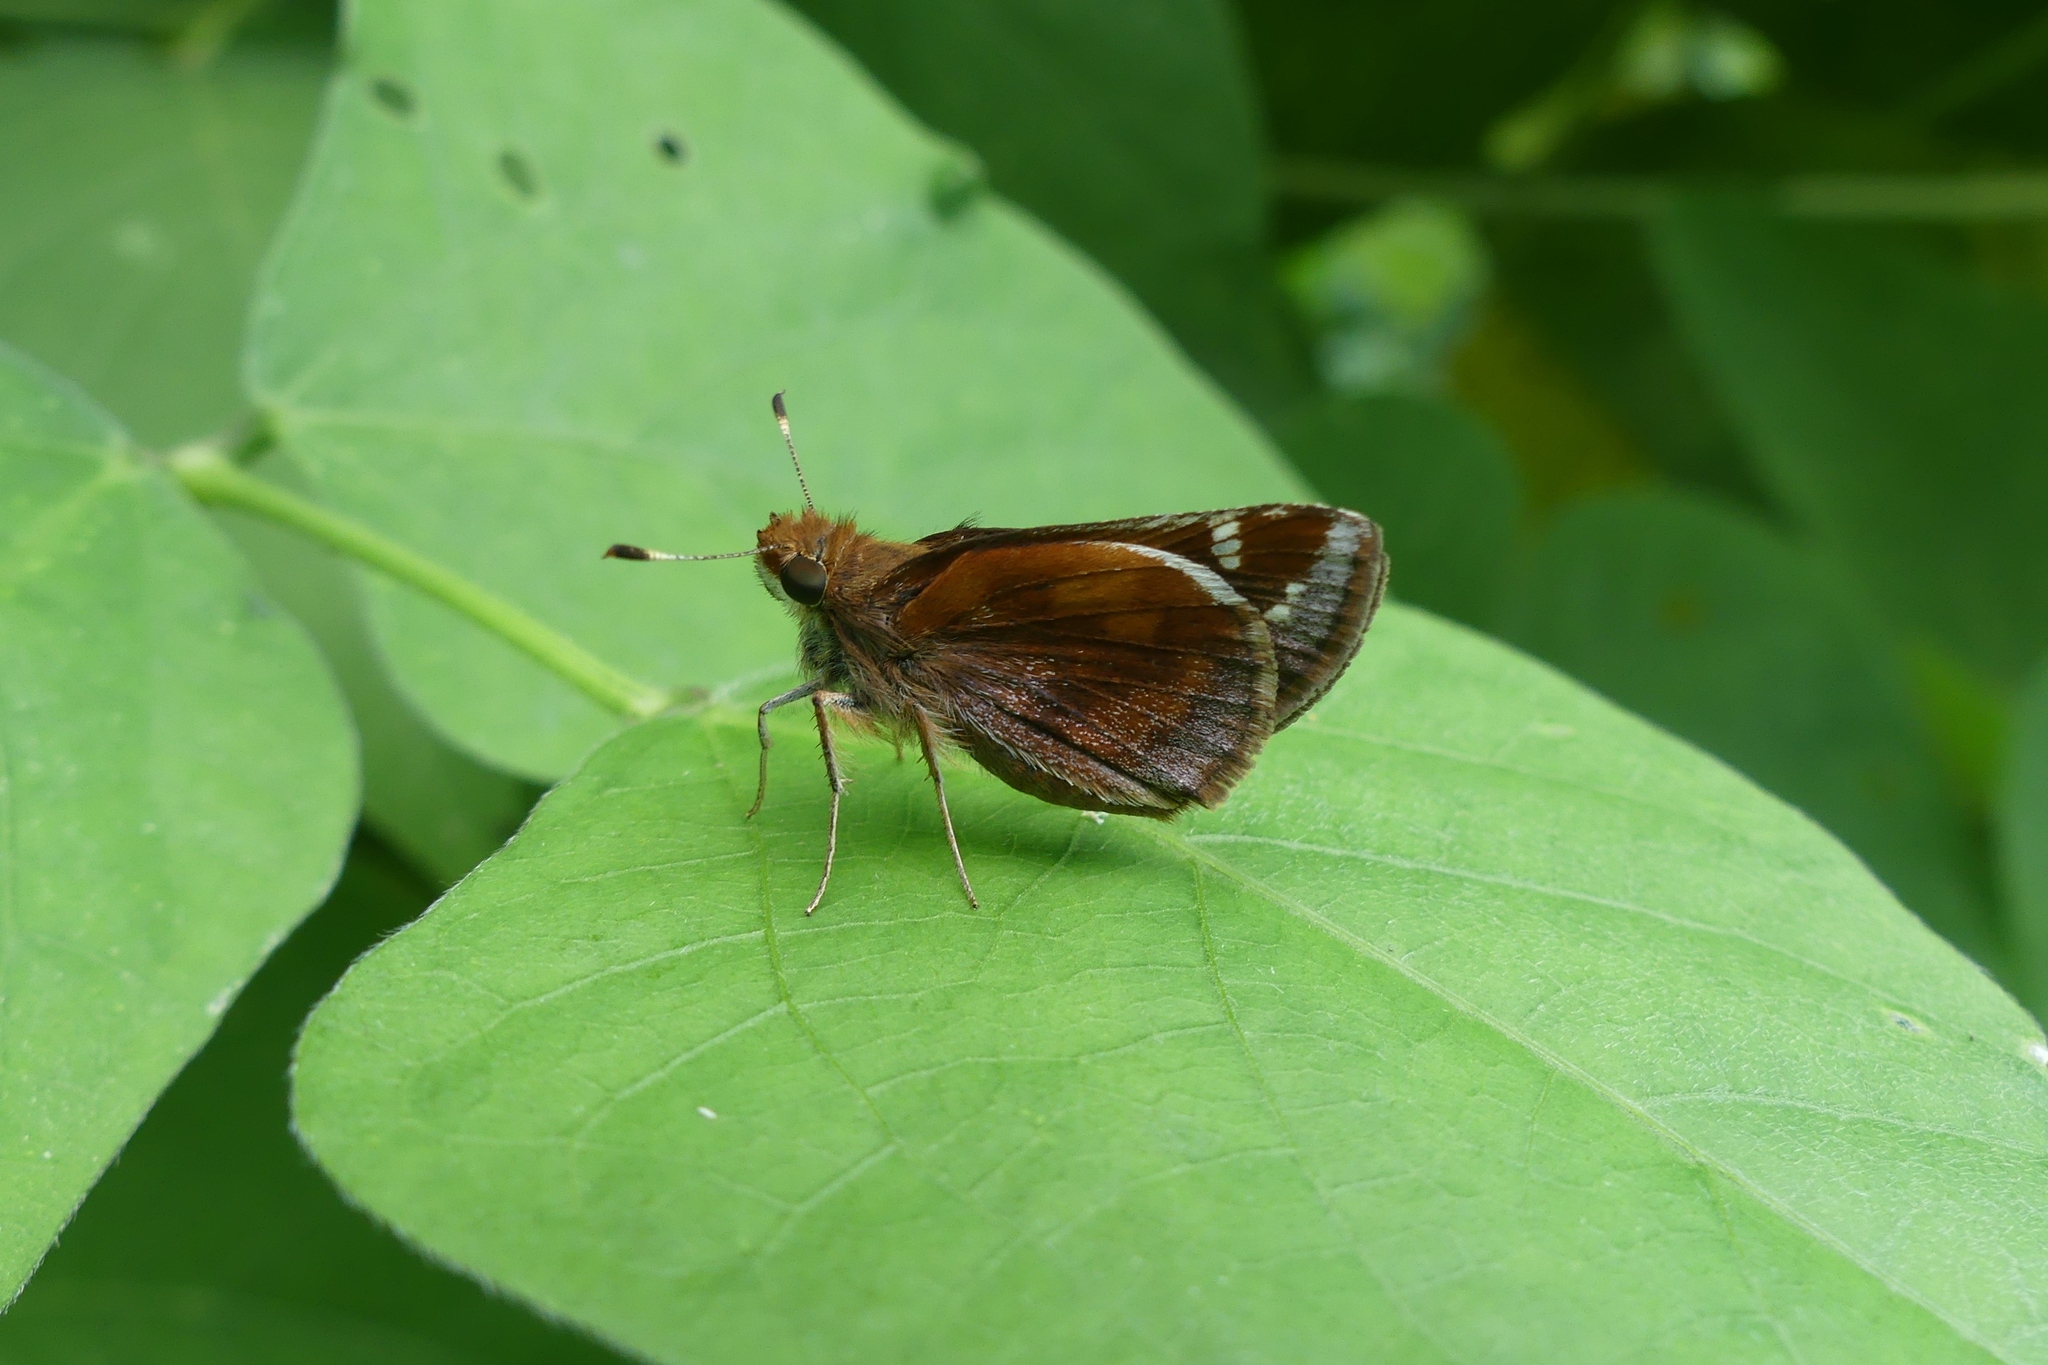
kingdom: Animalia
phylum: Arthropoda
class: Insecta
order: Lepidoptera
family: Hesperiidae
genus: Lon
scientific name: Lon zabulon
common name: Zabulon skipper
